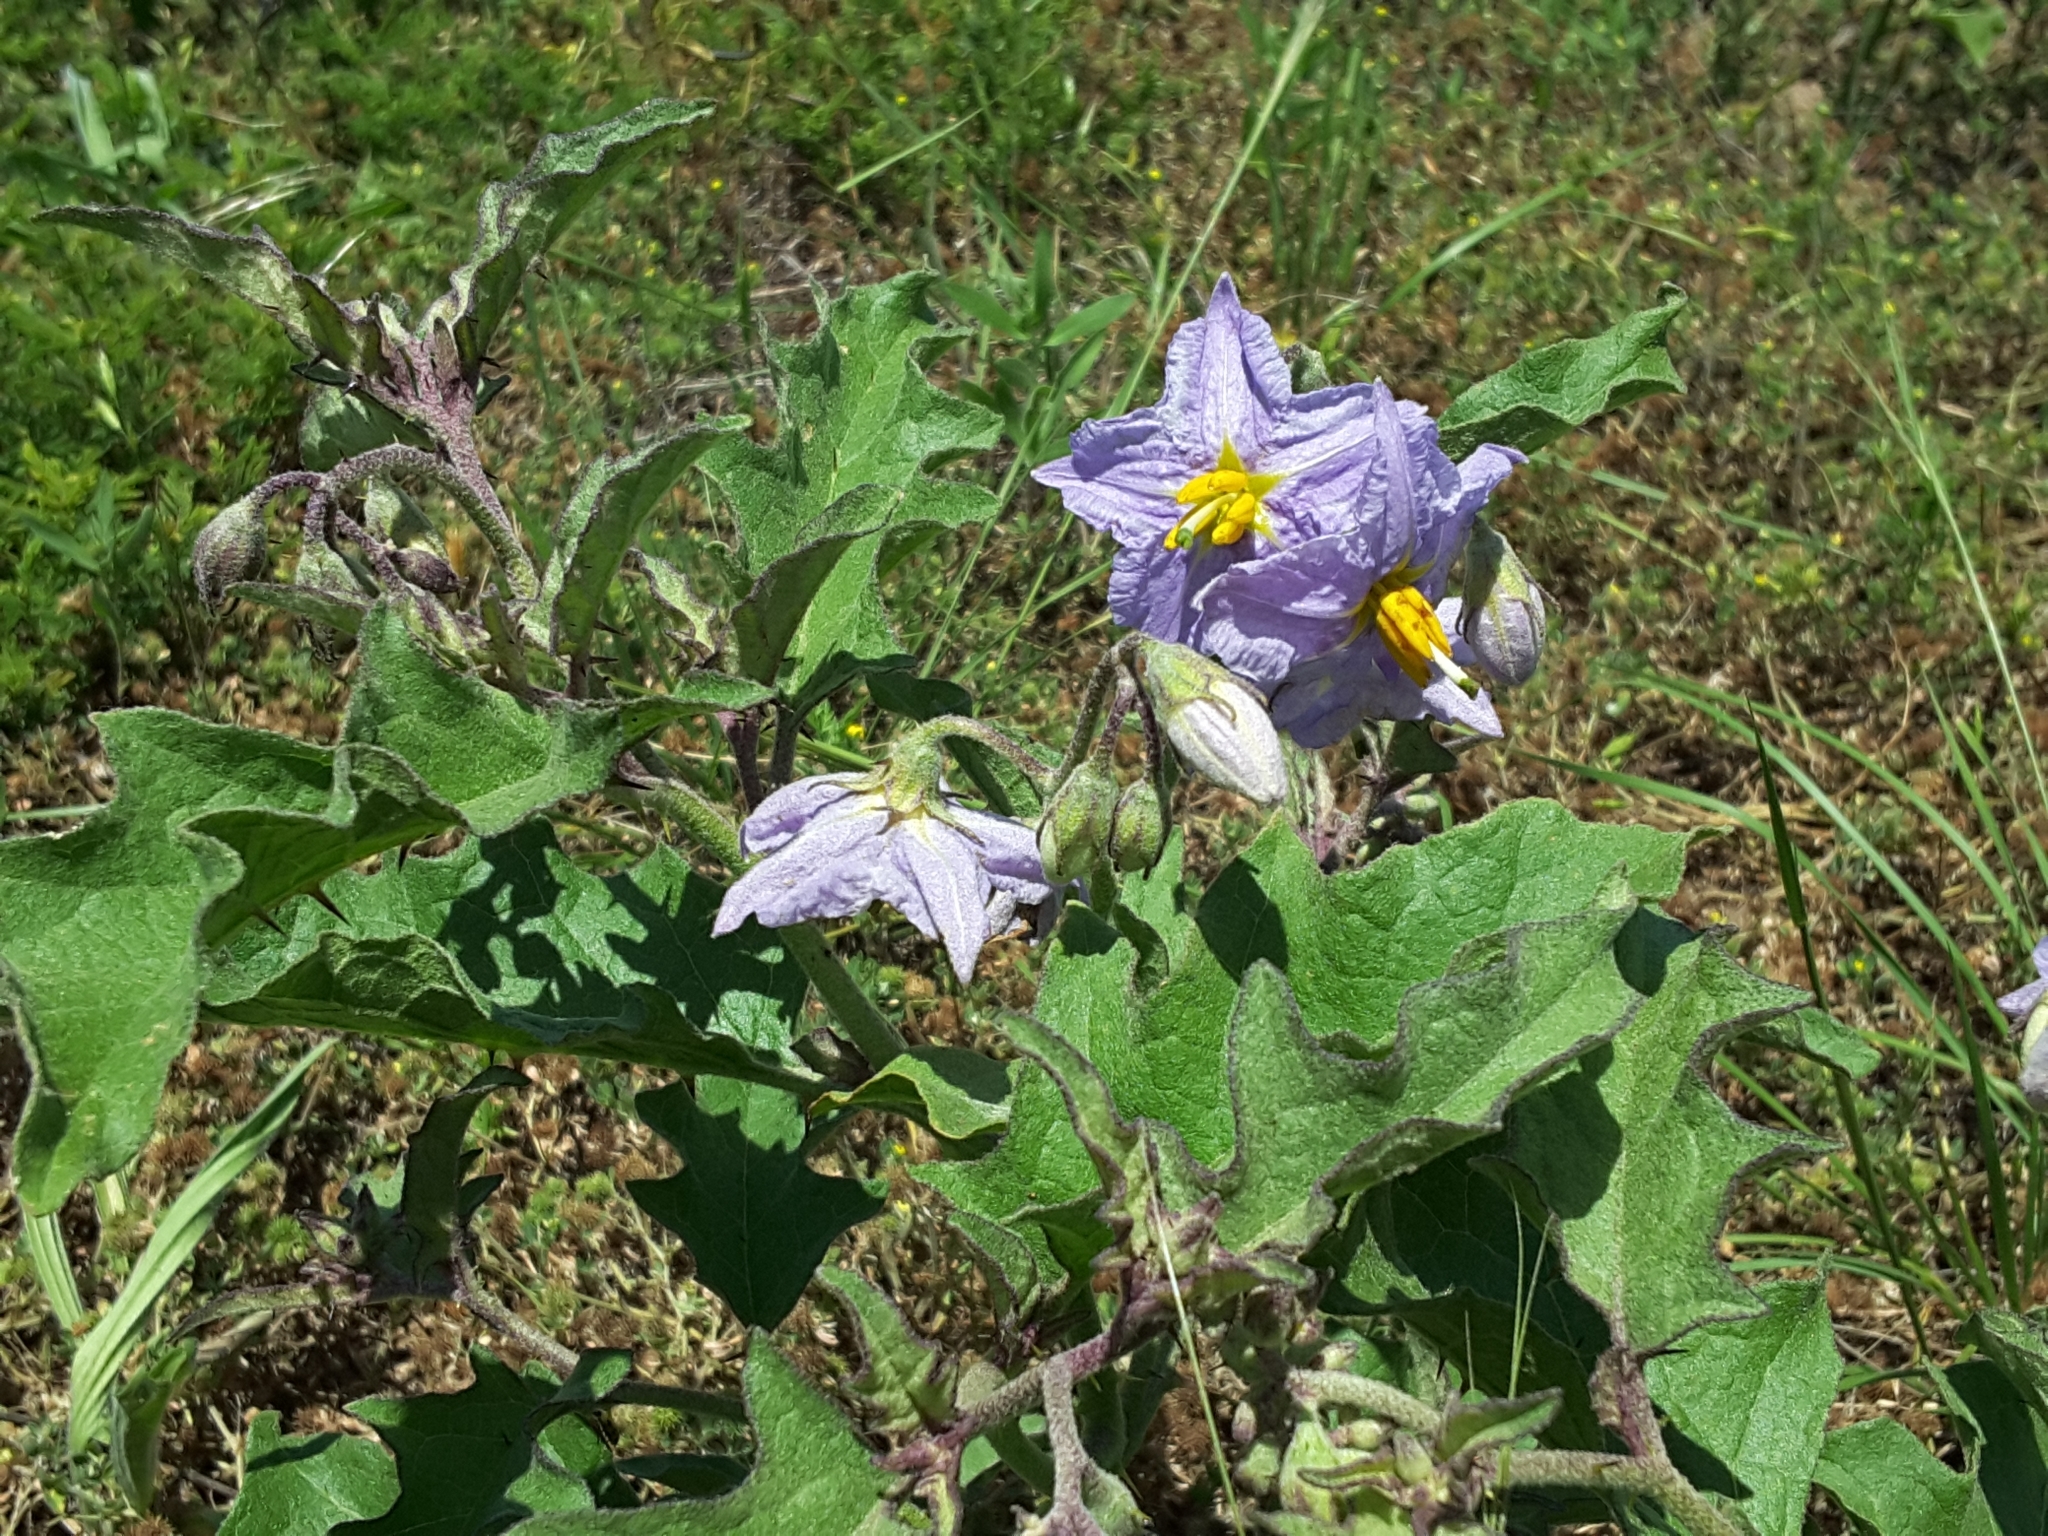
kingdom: Plantae
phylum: Tracheophyta
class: Magnoliopsida
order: Solanales
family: Solanaceae
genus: Solanum
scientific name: Solanum dimidiatum
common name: Carolina horse-nettle
